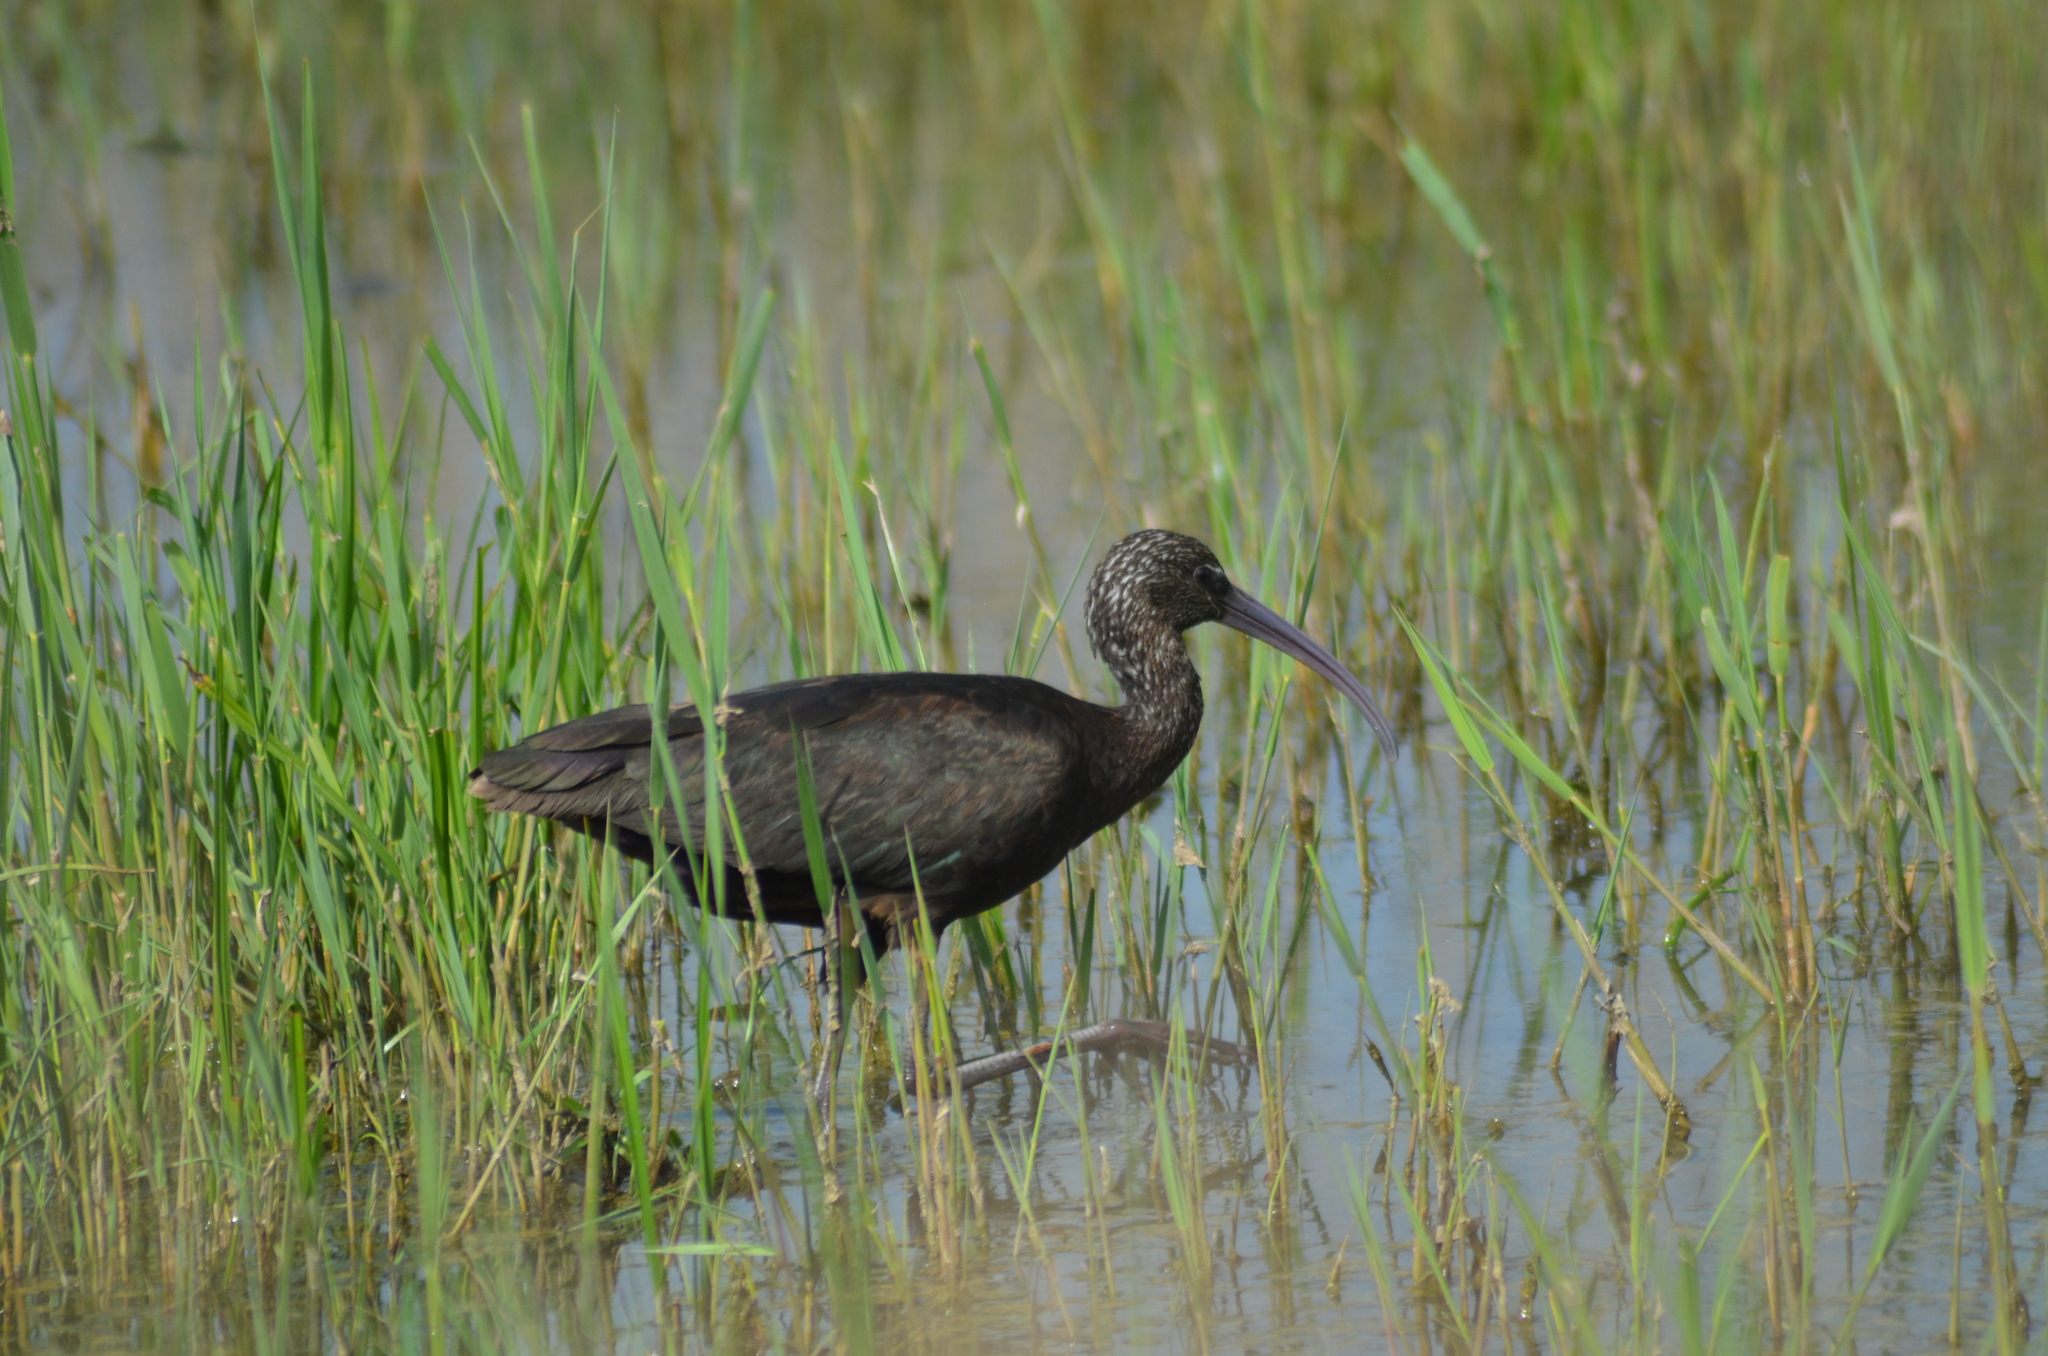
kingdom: Animalia
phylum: Chordata
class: Aves
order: Pelecaniformes
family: Threskiornithidae
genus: Plegadis
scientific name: Plegadis falcinellus
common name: Glossy ibis
